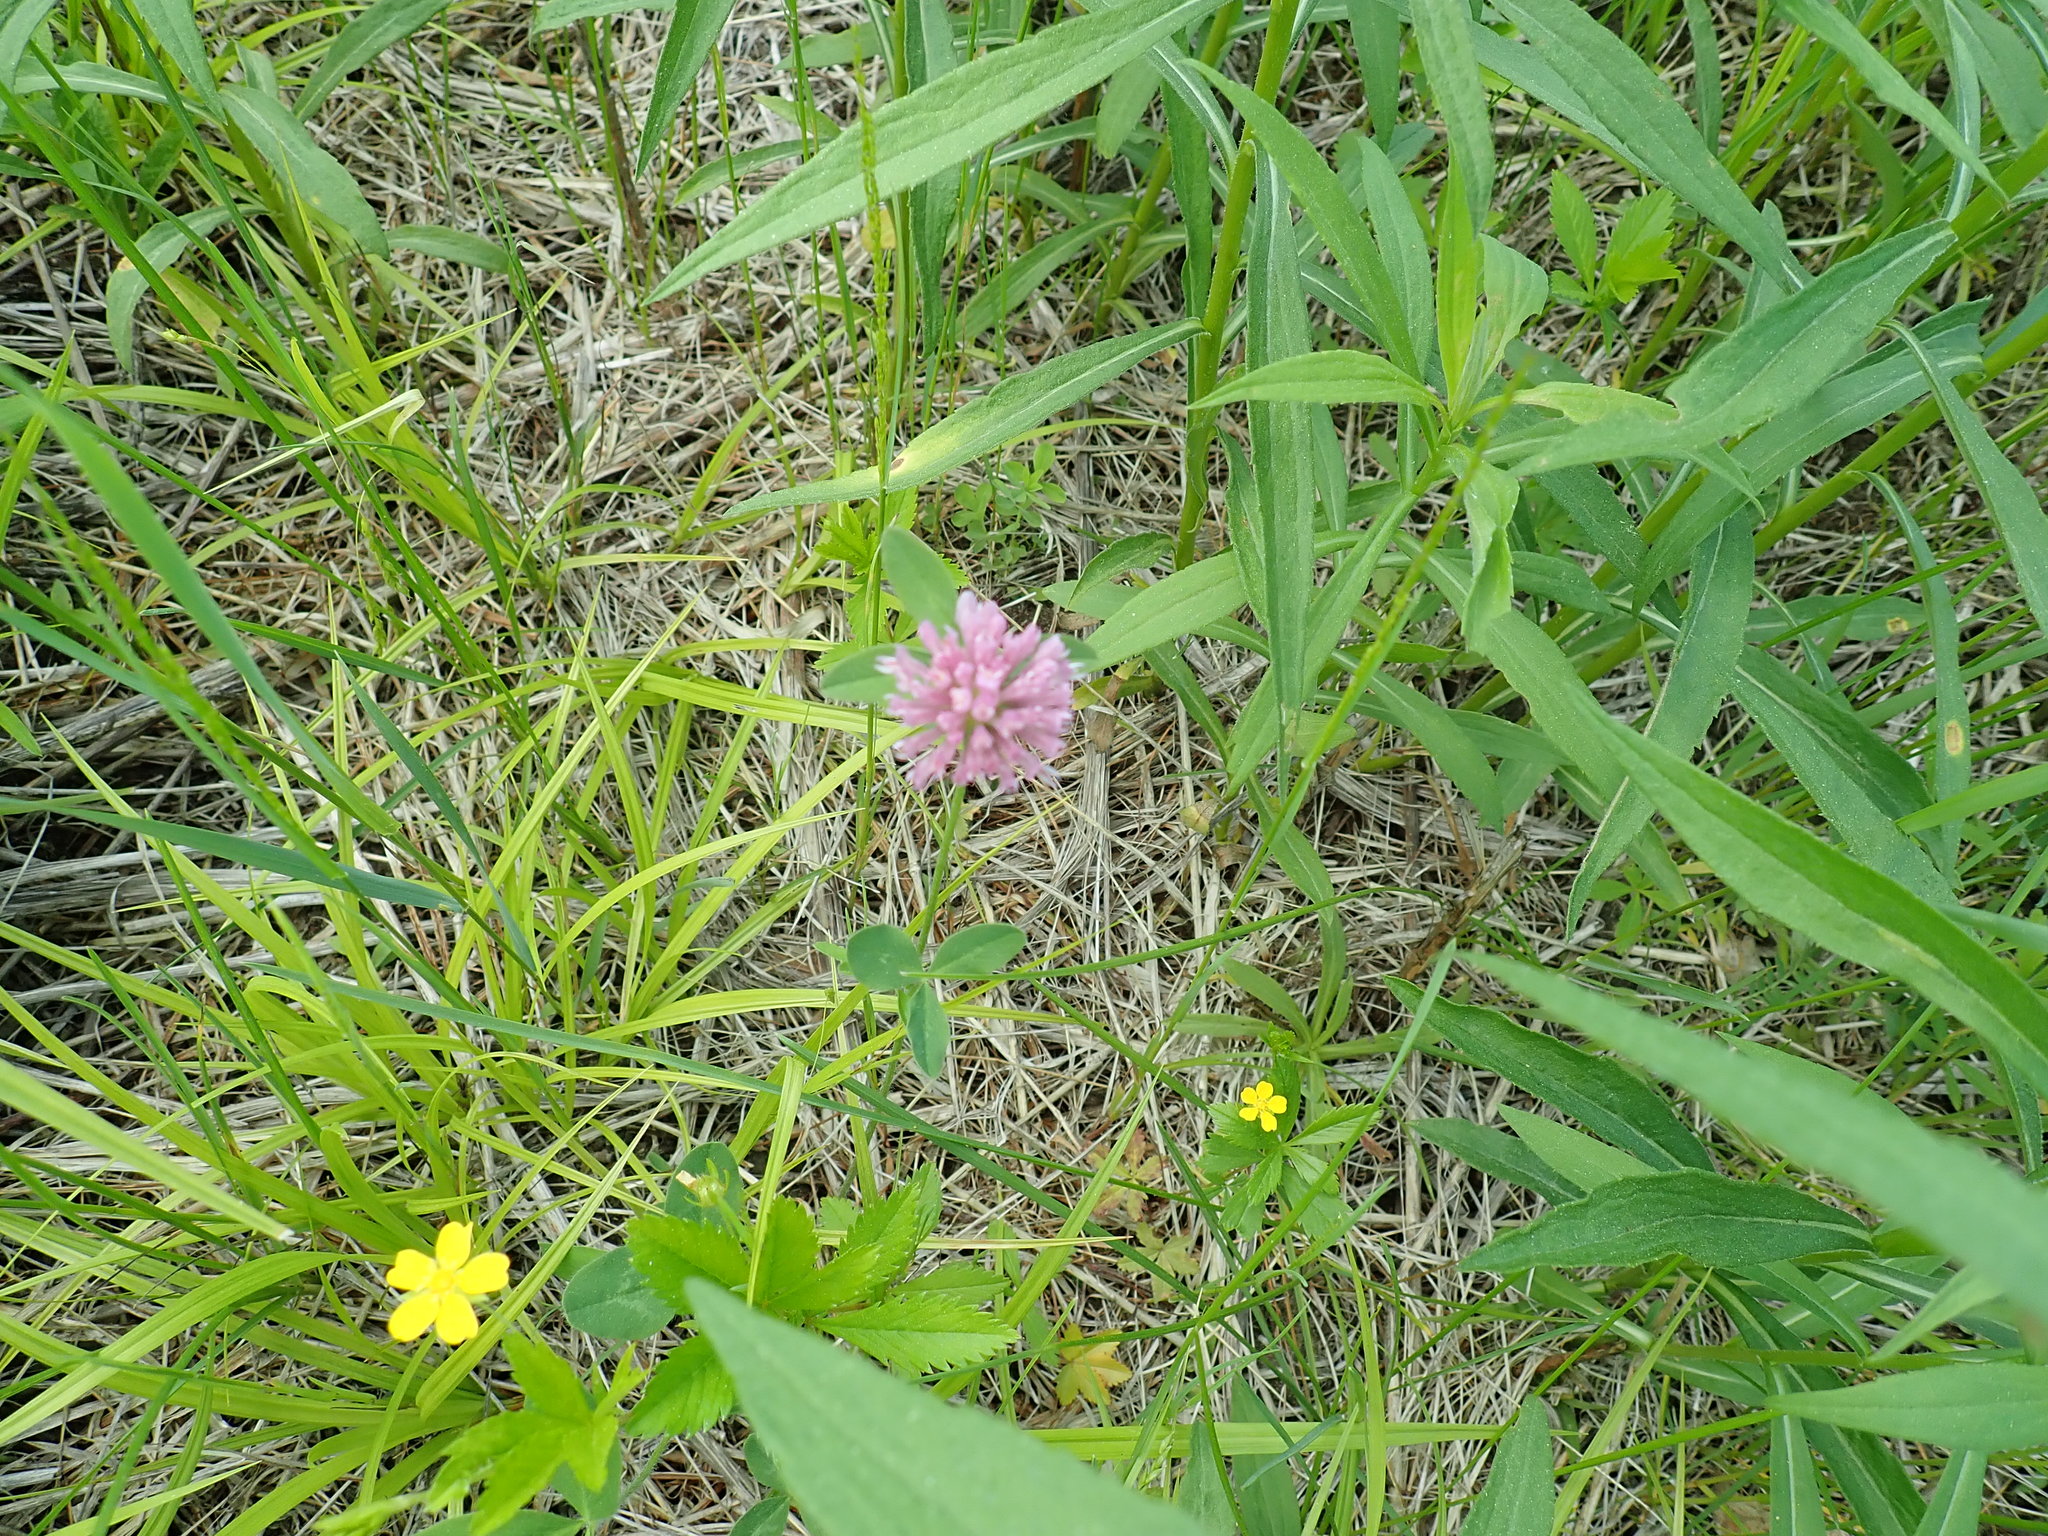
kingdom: Plantae
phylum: Tracheophyta
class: Magnoliopsida
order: Fabales
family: Fabaceae
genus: Trifolium
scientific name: Trifolium pratense
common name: Red clover
